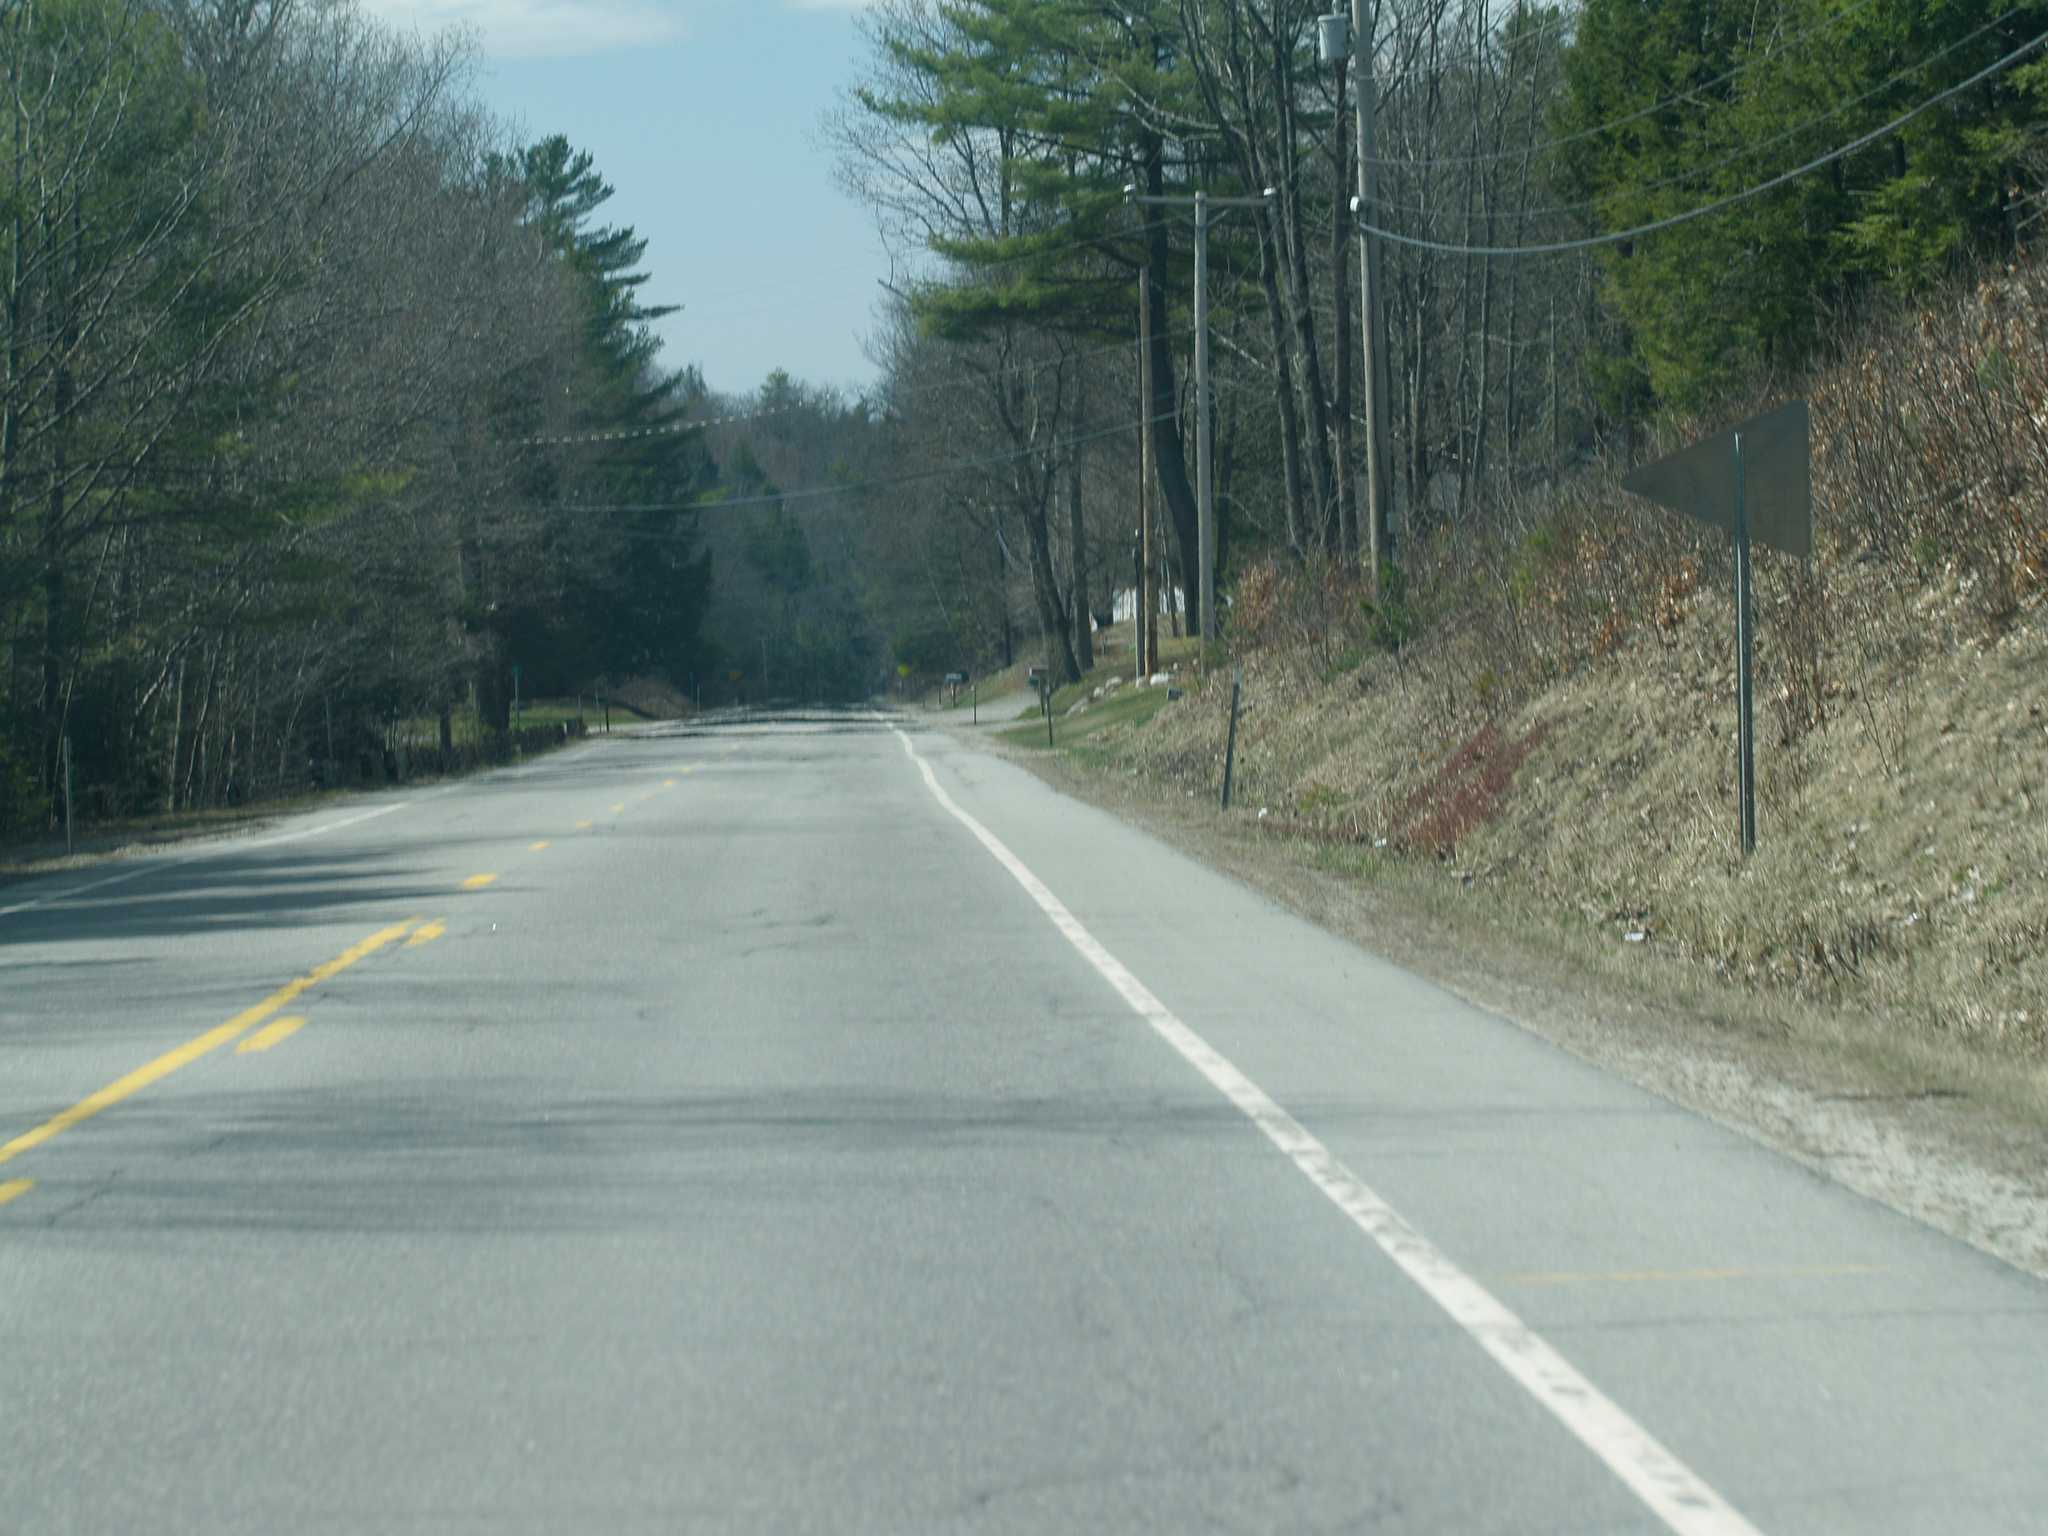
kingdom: Plantae
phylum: Tracheophyta
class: Pinopsida
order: Pinales
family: Pinaceae
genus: Pinus
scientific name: Pinus strobus
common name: Weymouth pine
